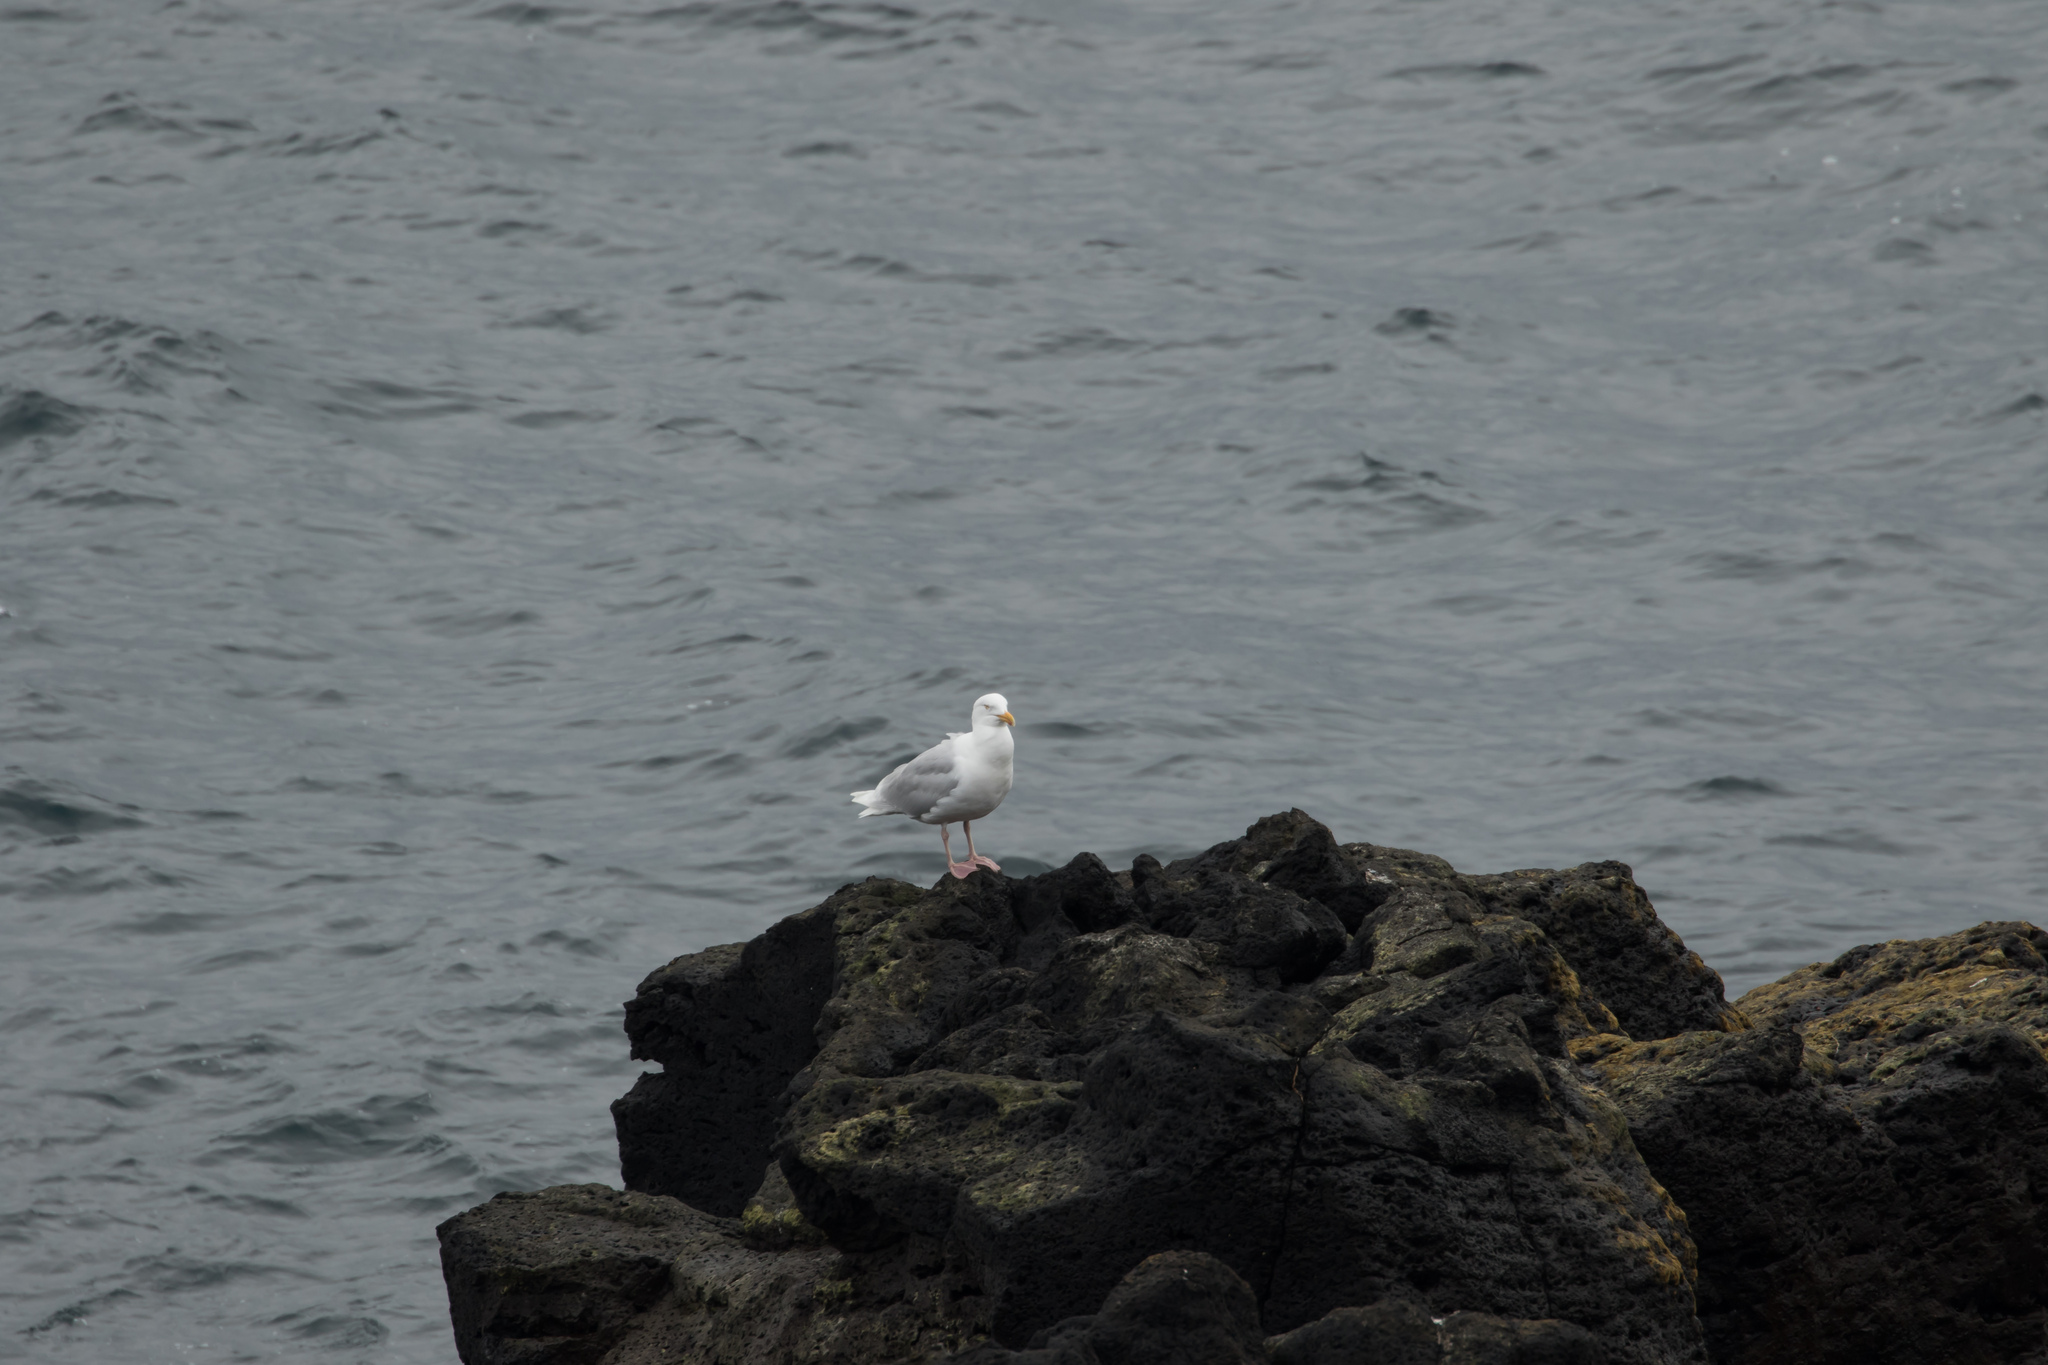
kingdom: Animalia
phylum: Chordata
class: Aves
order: Charadriiformes
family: Laridae
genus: Larus
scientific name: Larus hyperboreus
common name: Glaucous gull
